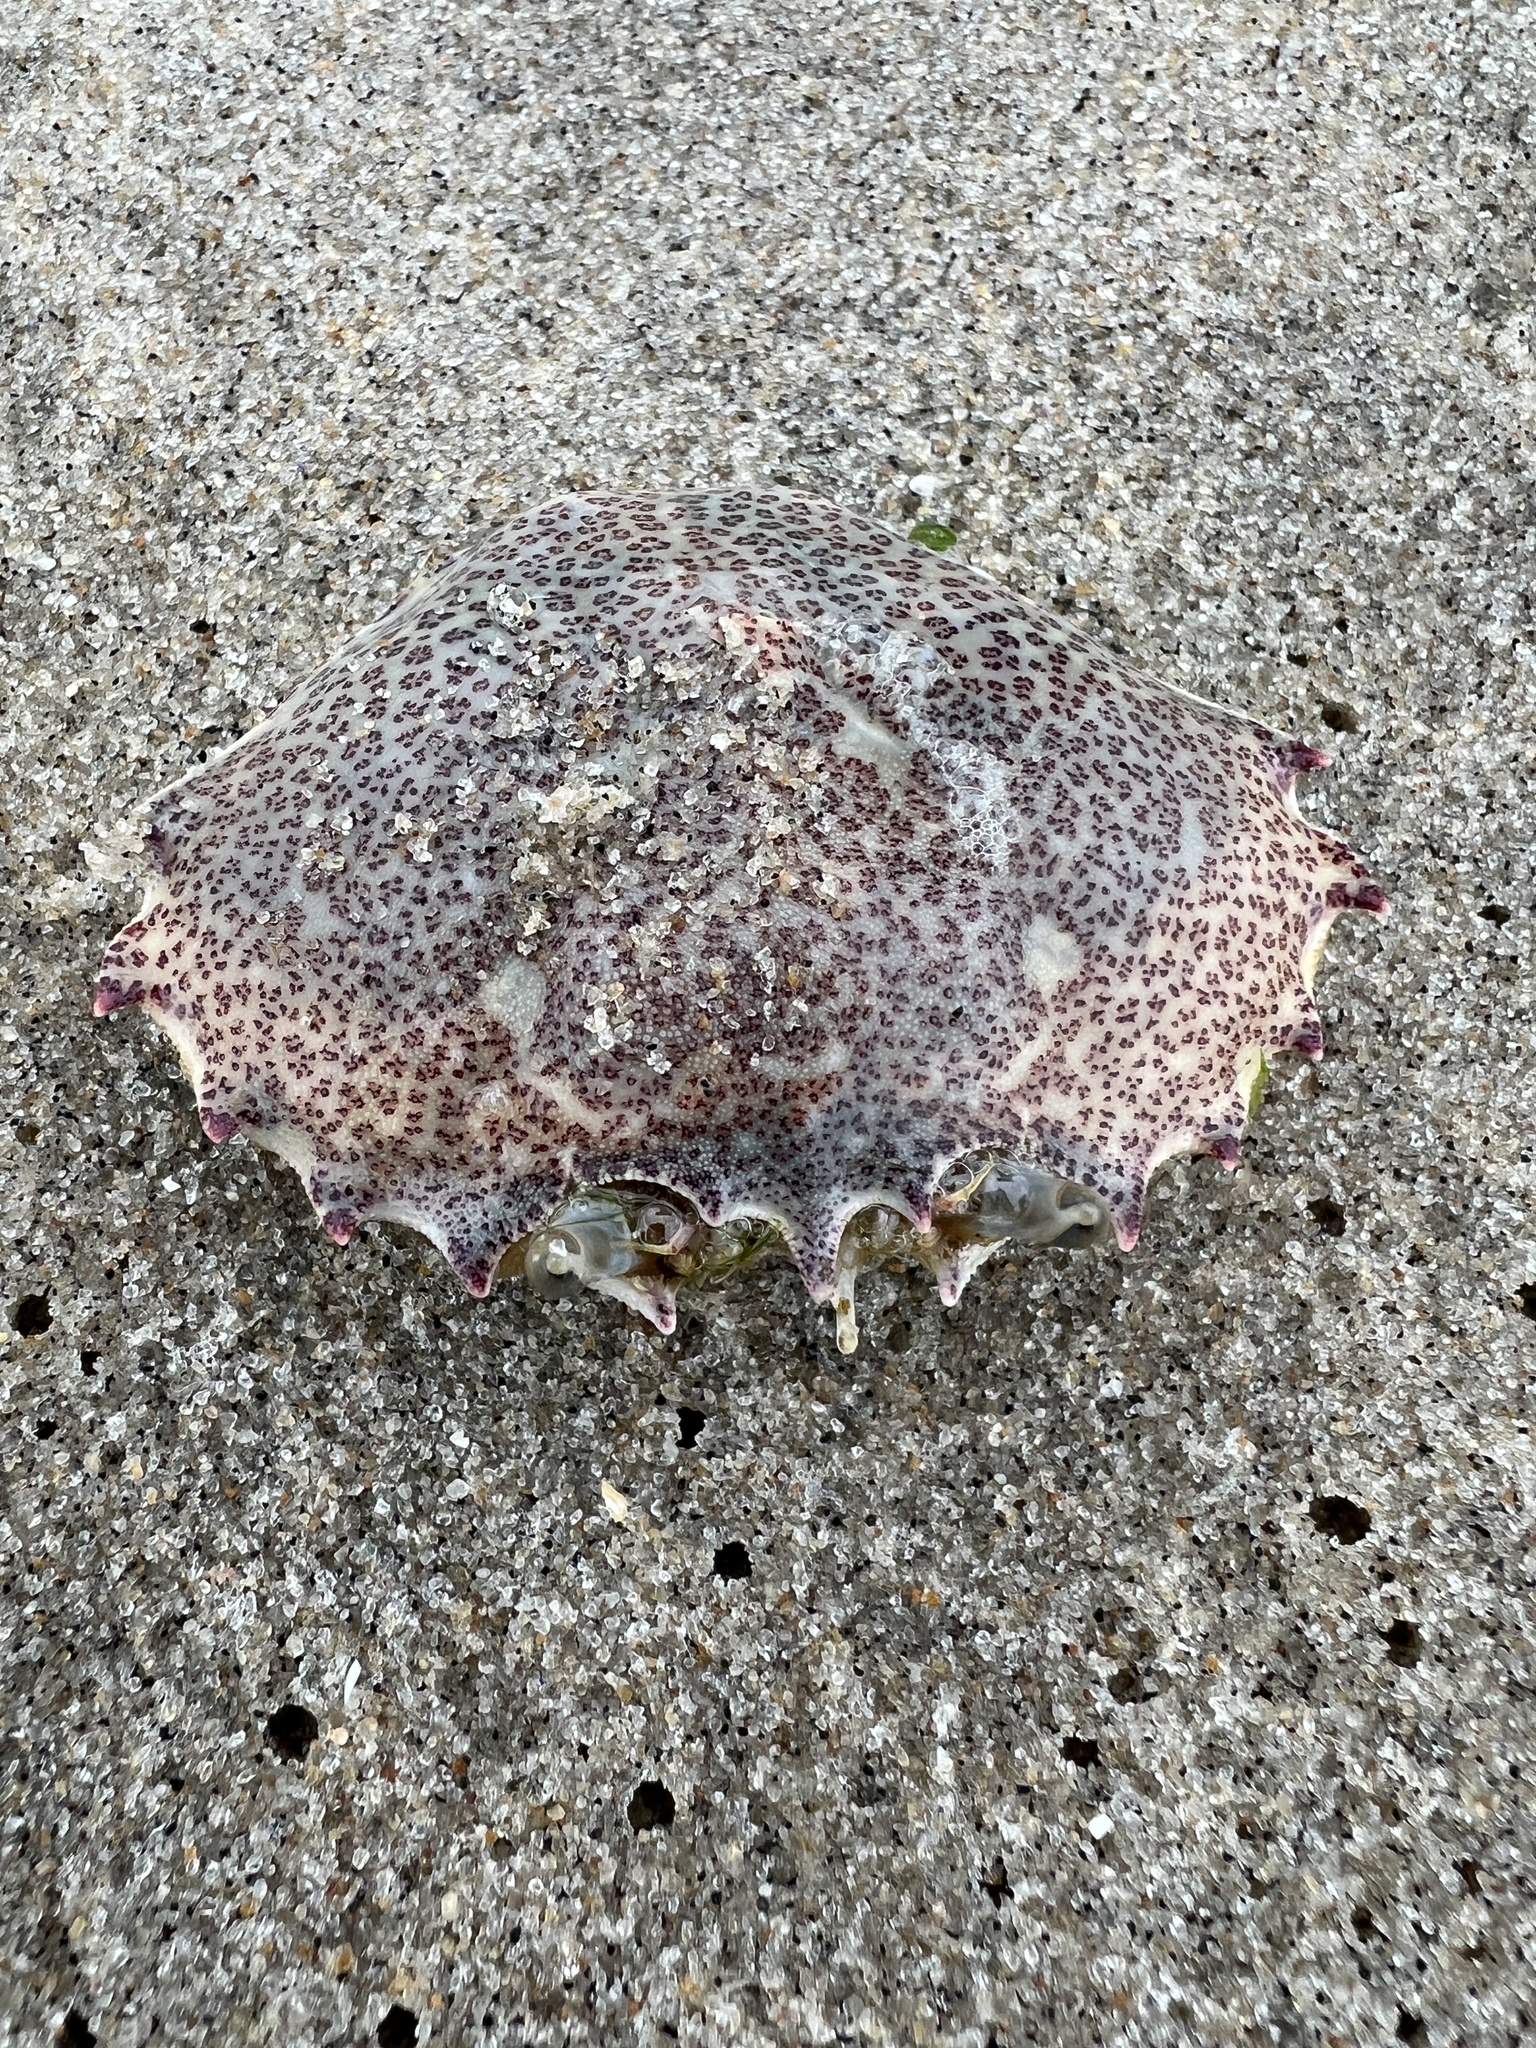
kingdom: Animalia
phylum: Arthropoda
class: Malacostraca
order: Decapoda
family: Ovalipidae
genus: Ovalipes
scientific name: Ovalipes ocellatus
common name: Lady crab
